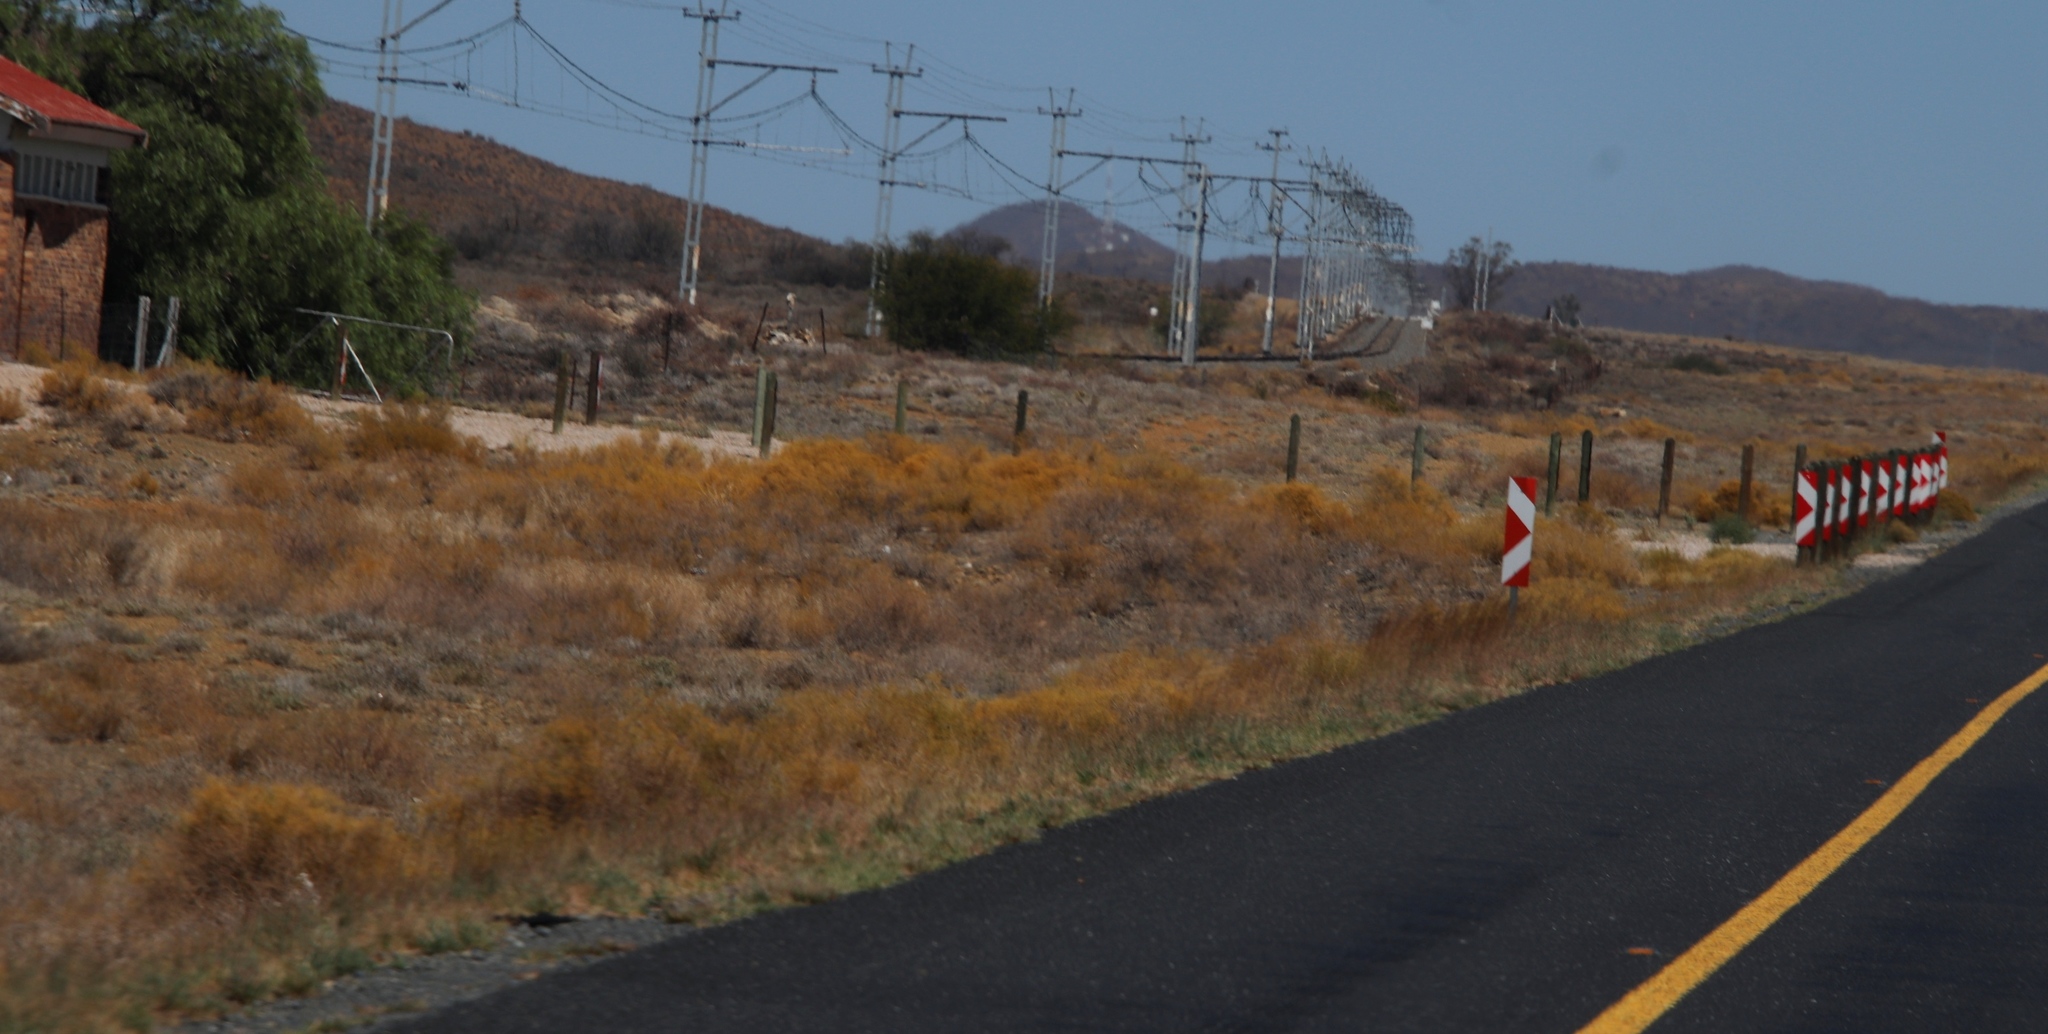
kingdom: Plantae
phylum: Tracheophyta
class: Magnoliopsida
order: Caryophyllales
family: Aizoaceae
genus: Aizoon
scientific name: Aizoon africanum
